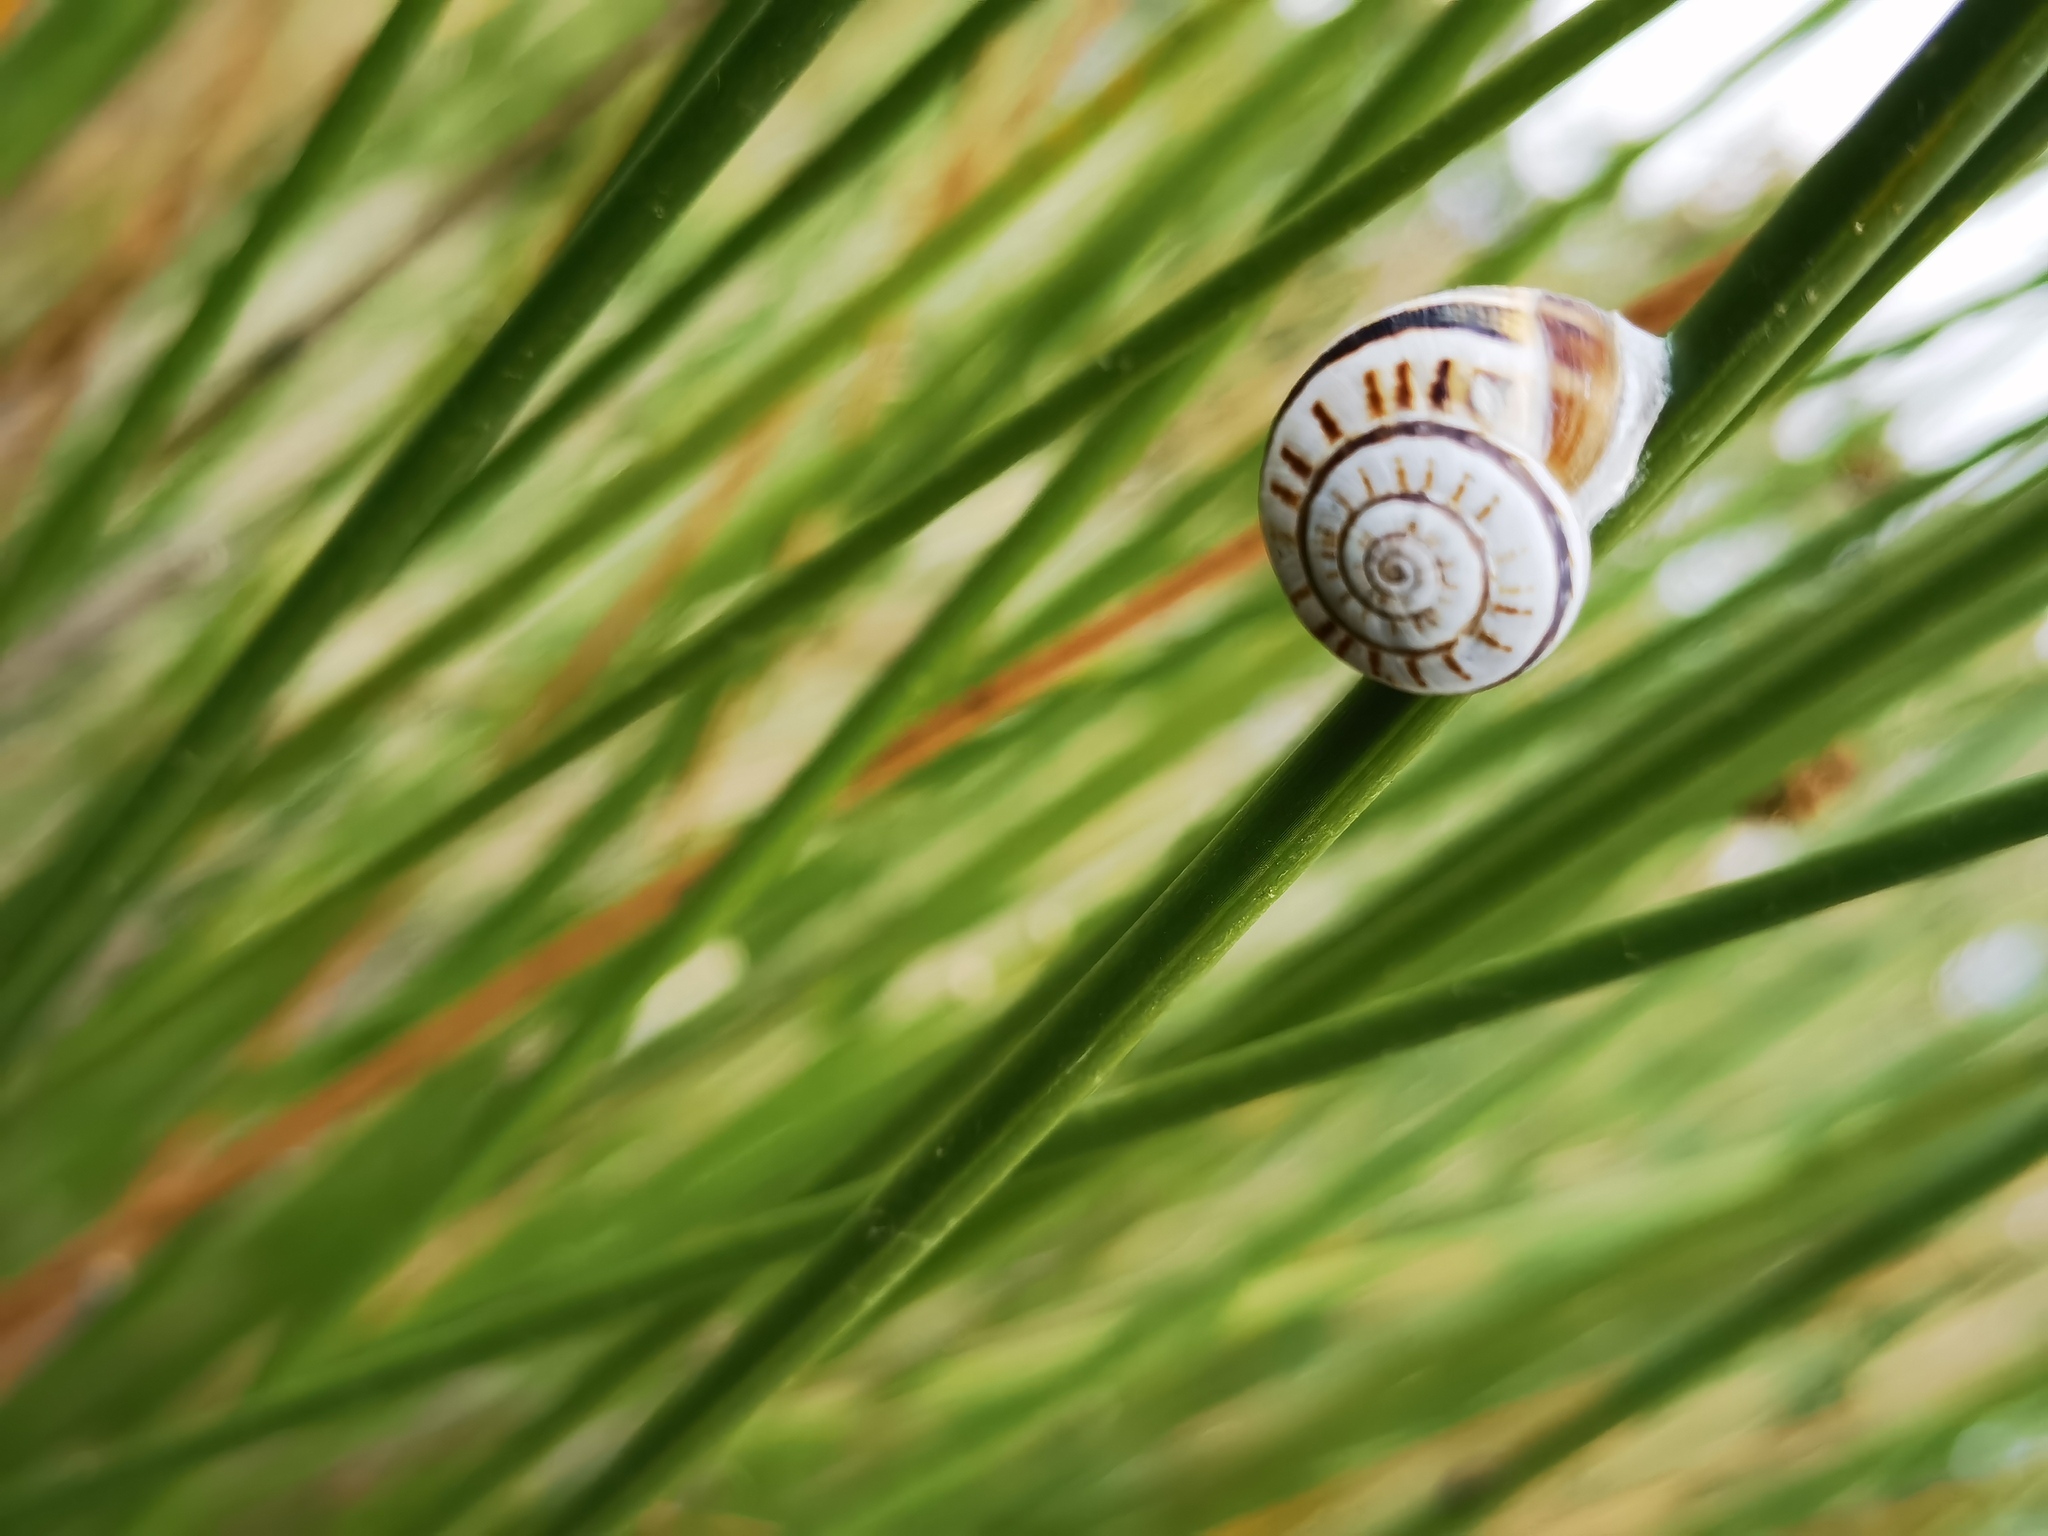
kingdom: Animalia
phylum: Mollusca
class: Gastropoda
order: Stylommatophora
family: Helicidae
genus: Theba
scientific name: Theba pisana
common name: White snail
